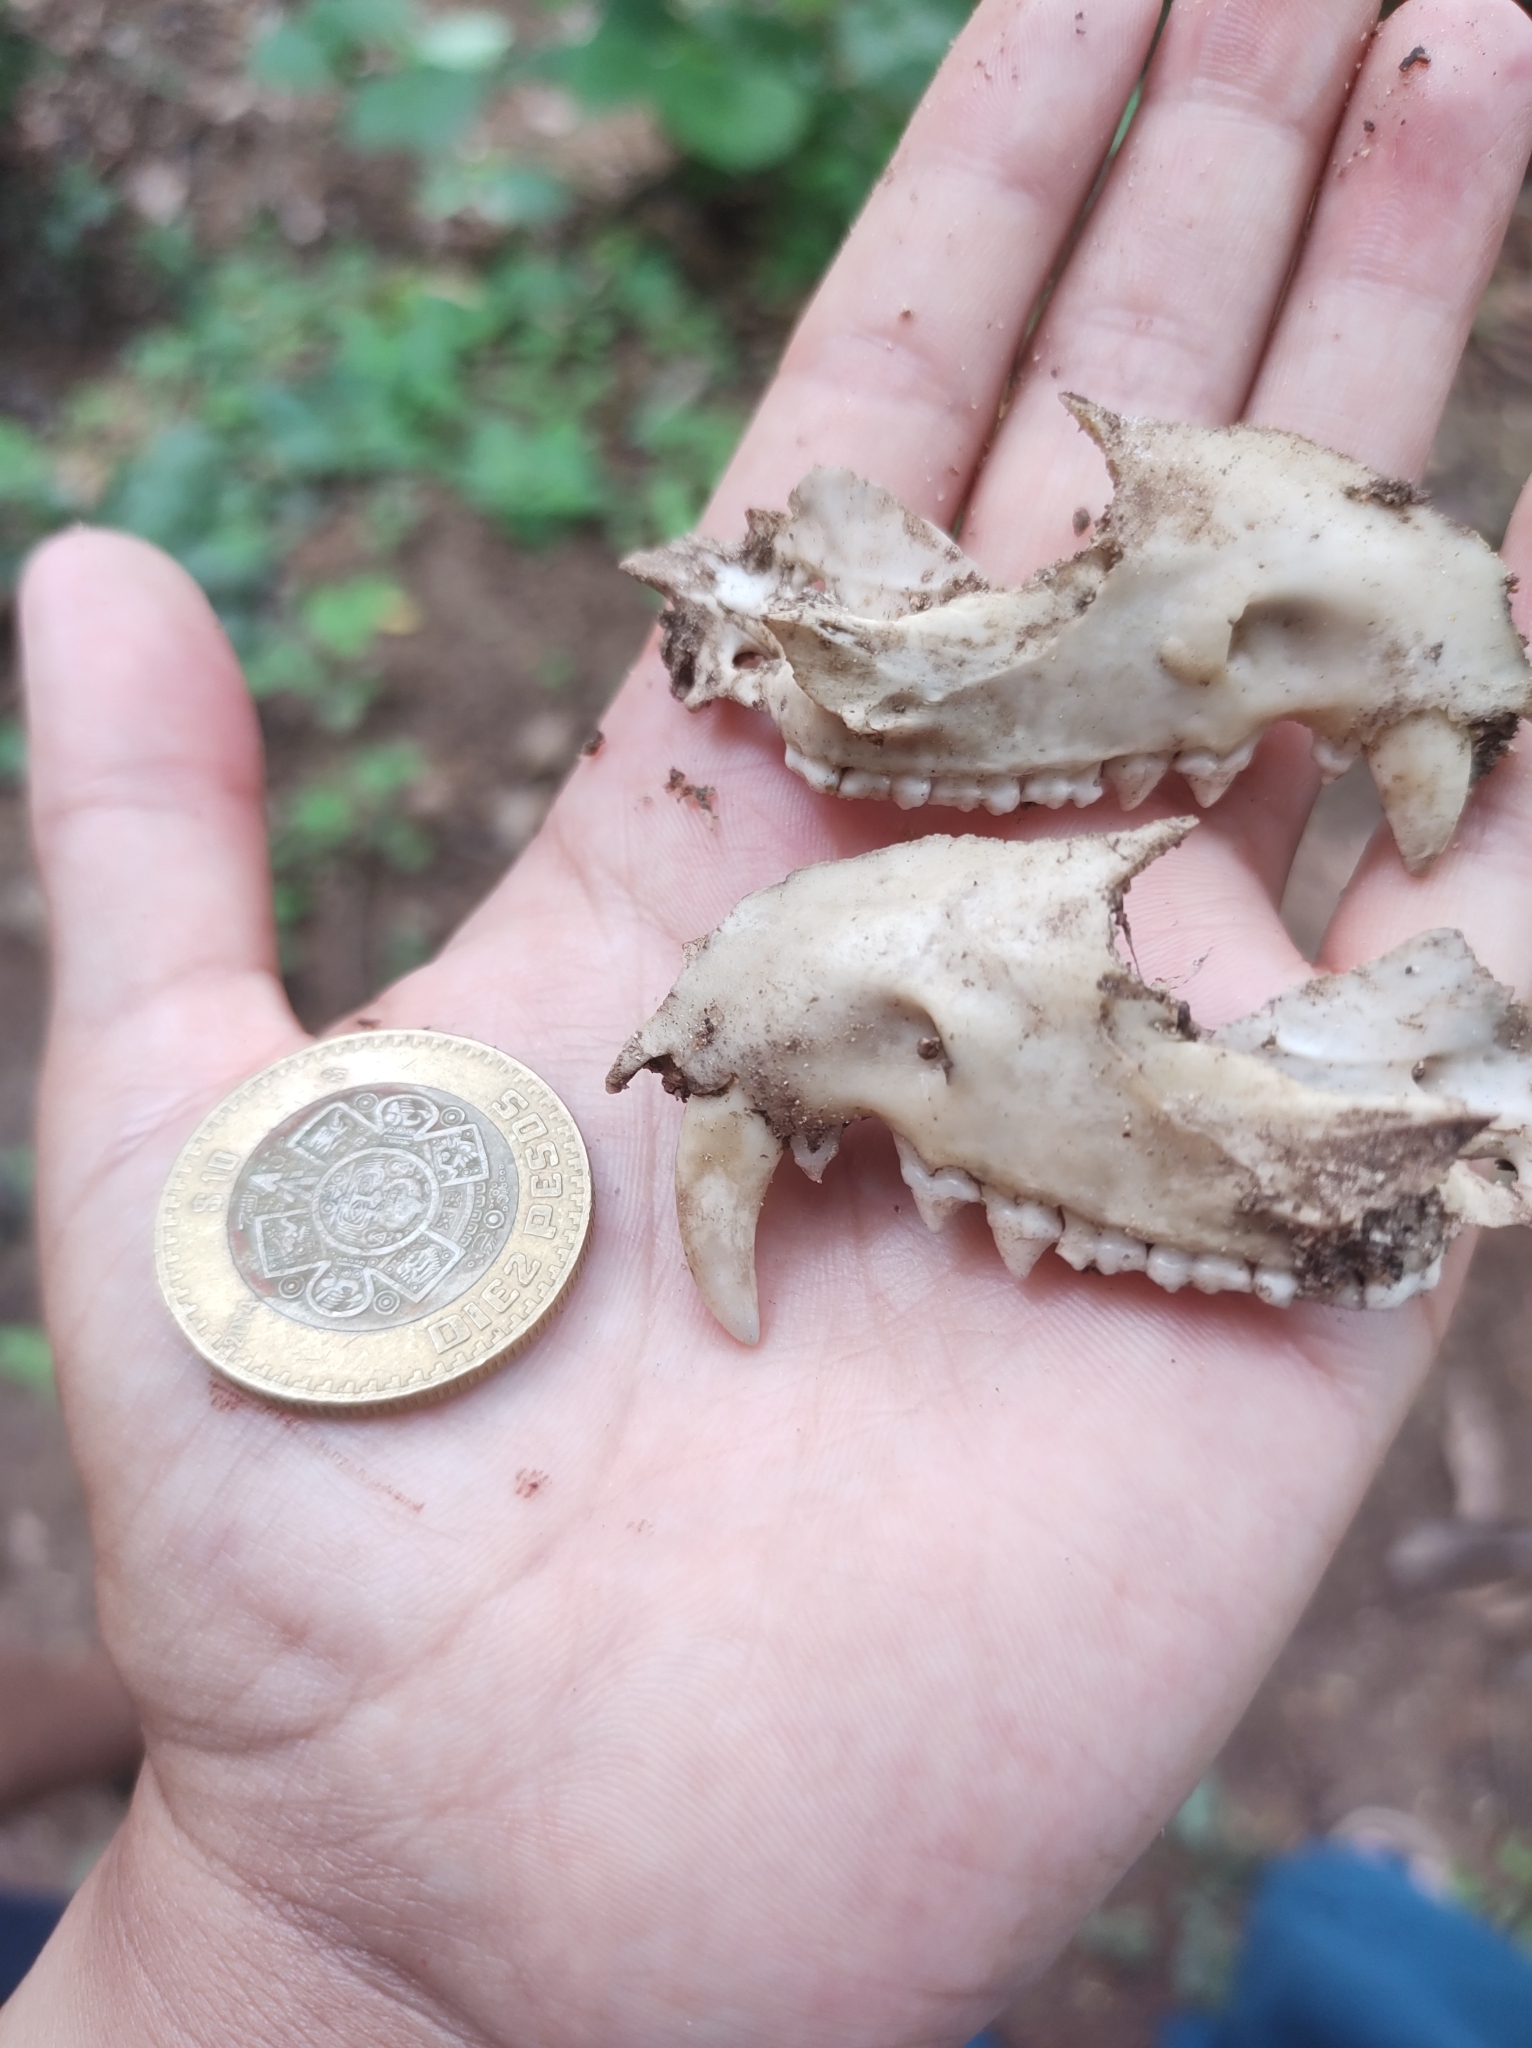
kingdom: Animalia
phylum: Chordata
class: Mammalia
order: Didelphimorphia
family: Didelphidae
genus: Didelphis
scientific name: Didelphis virginiana
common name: Virginia opossum
